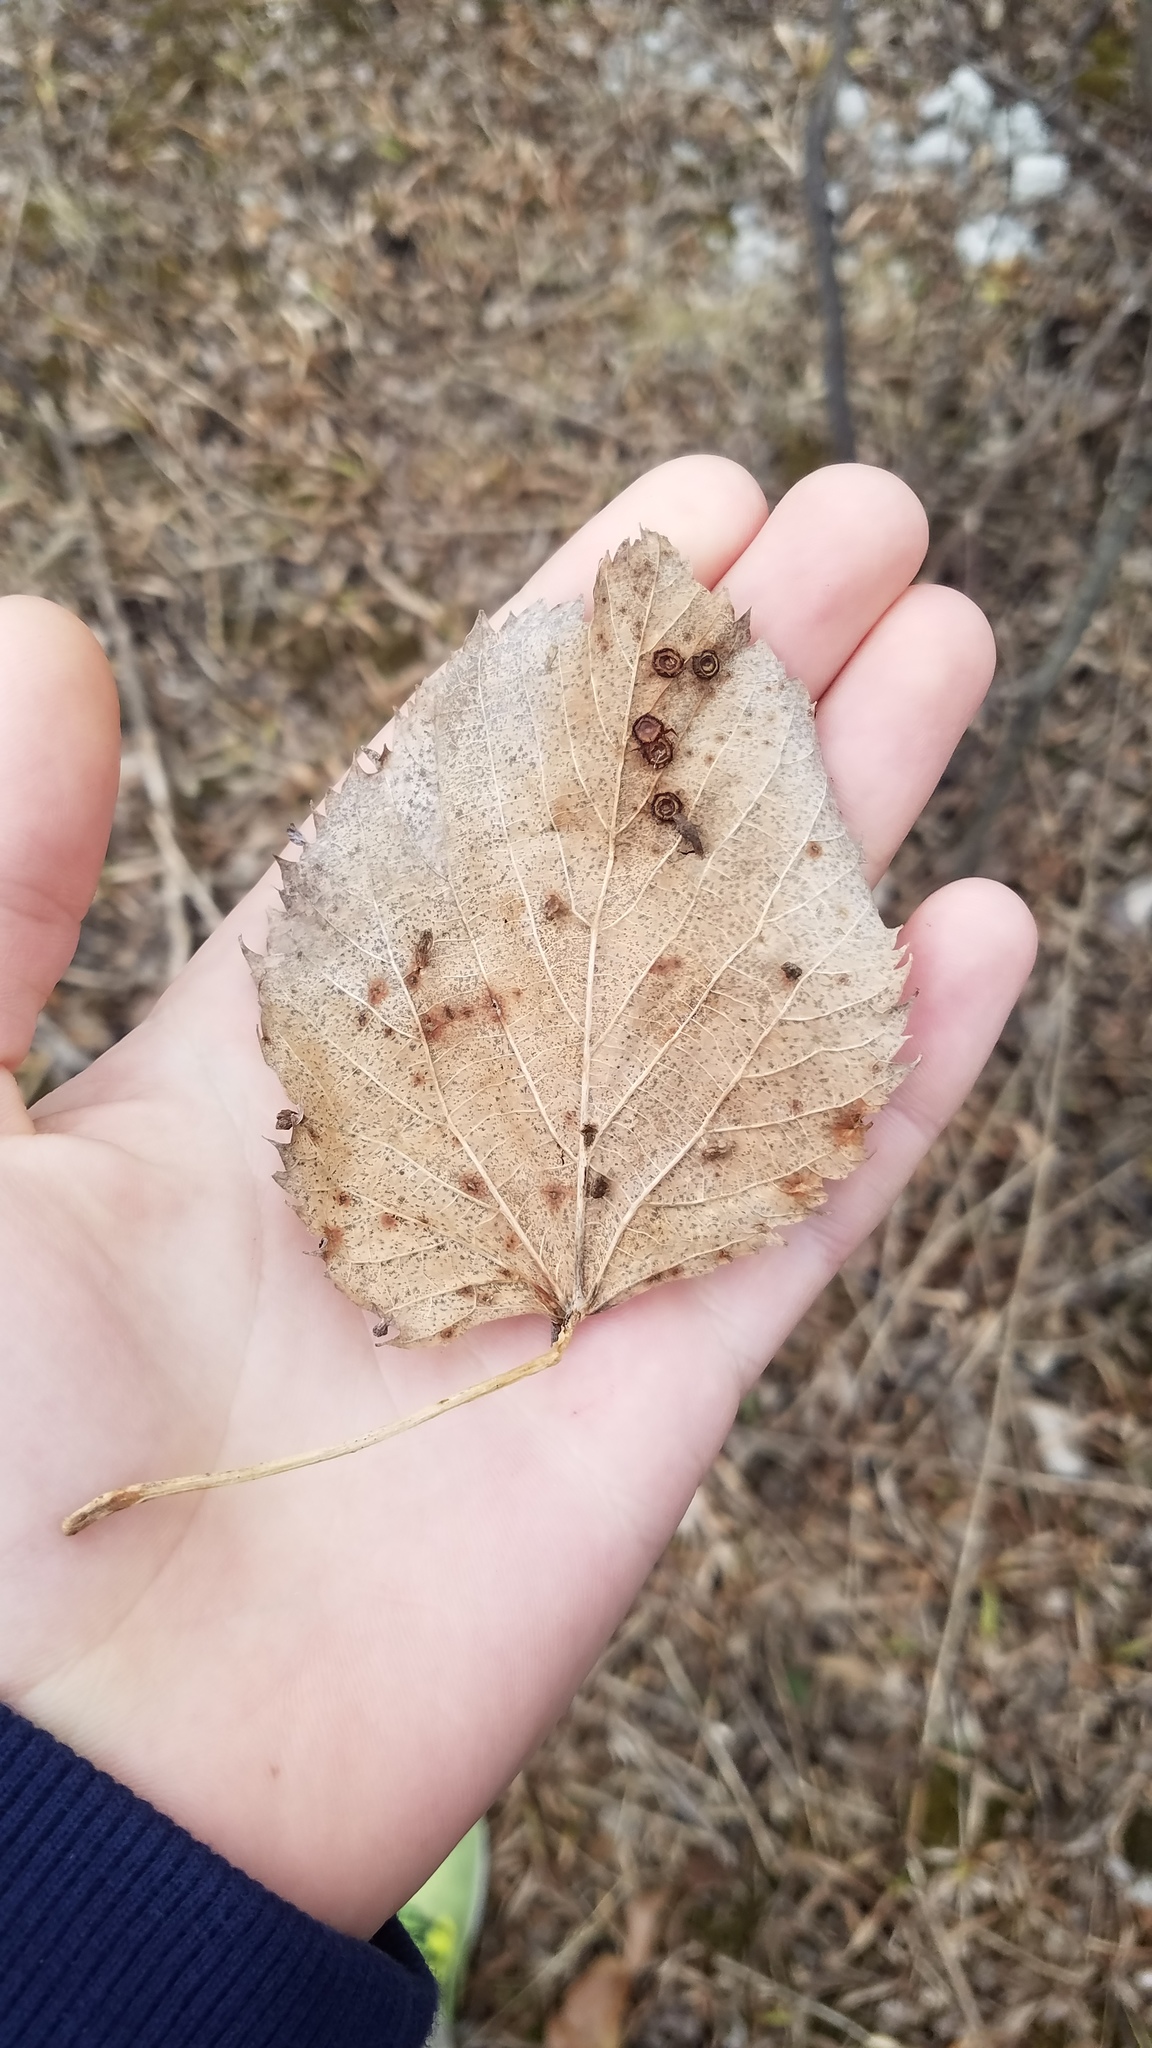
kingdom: Plantae
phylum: Tracheophyta
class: Magnoliopsida
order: Malvales
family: Malvaceae
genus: Tilia
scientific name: Tilia americana
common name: Basswood
